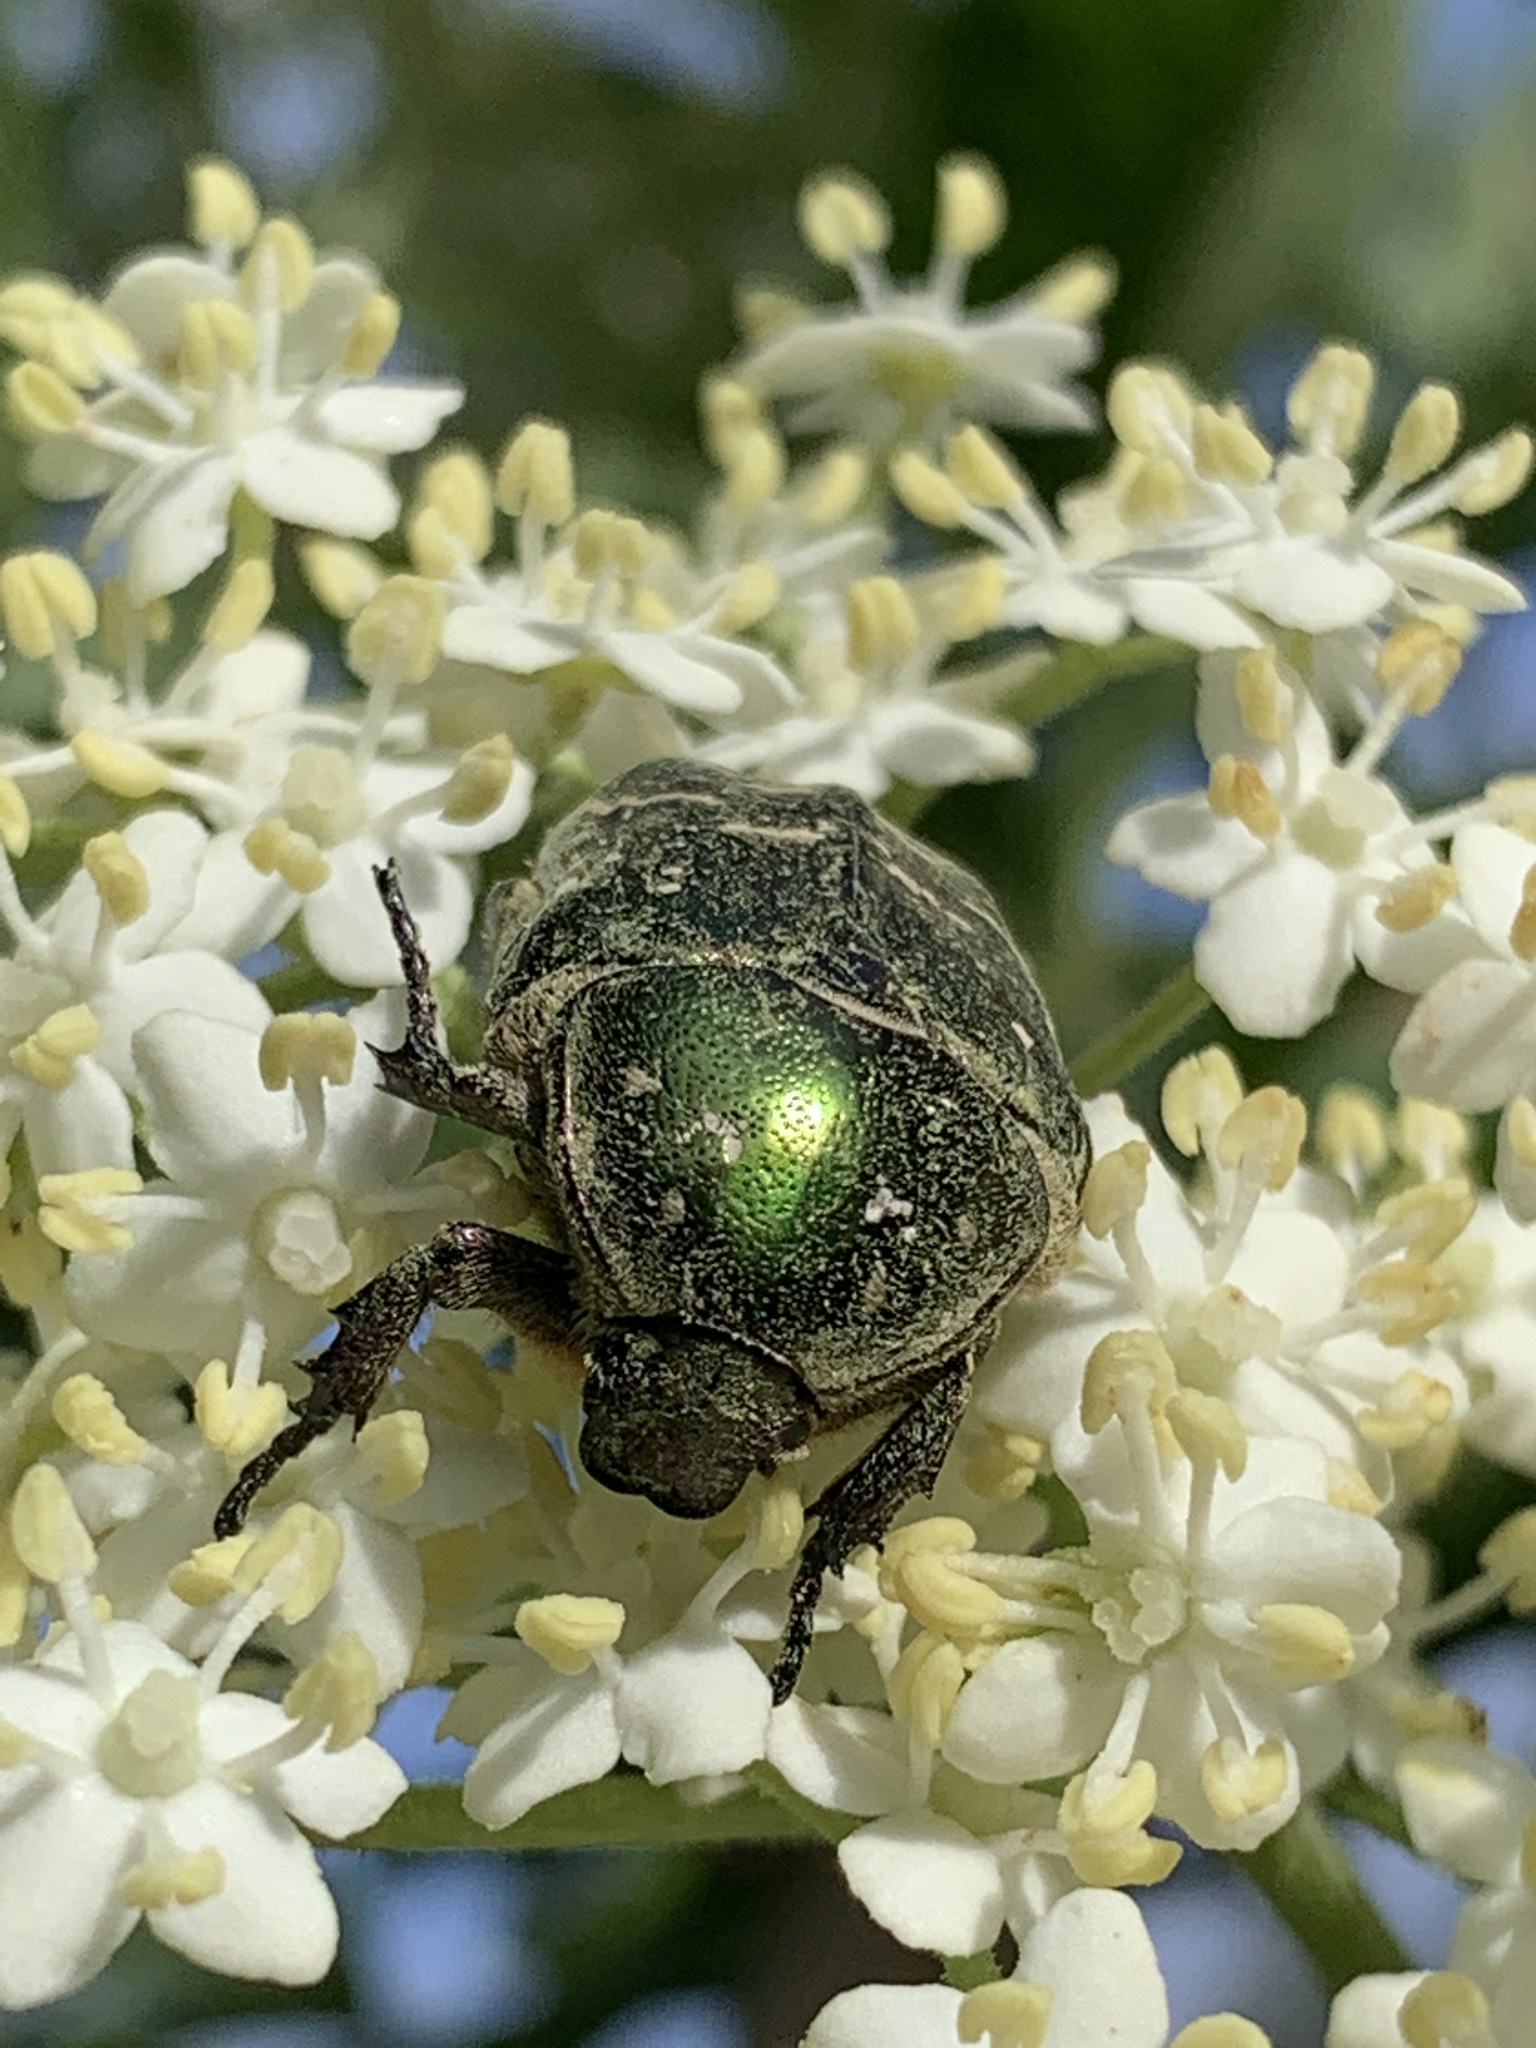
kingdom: Animalia
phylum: Arthropoda
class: Insecta
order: Coleoptera
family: Scarabaeidae
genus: Protaetia
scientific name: Protaetia cuprea
